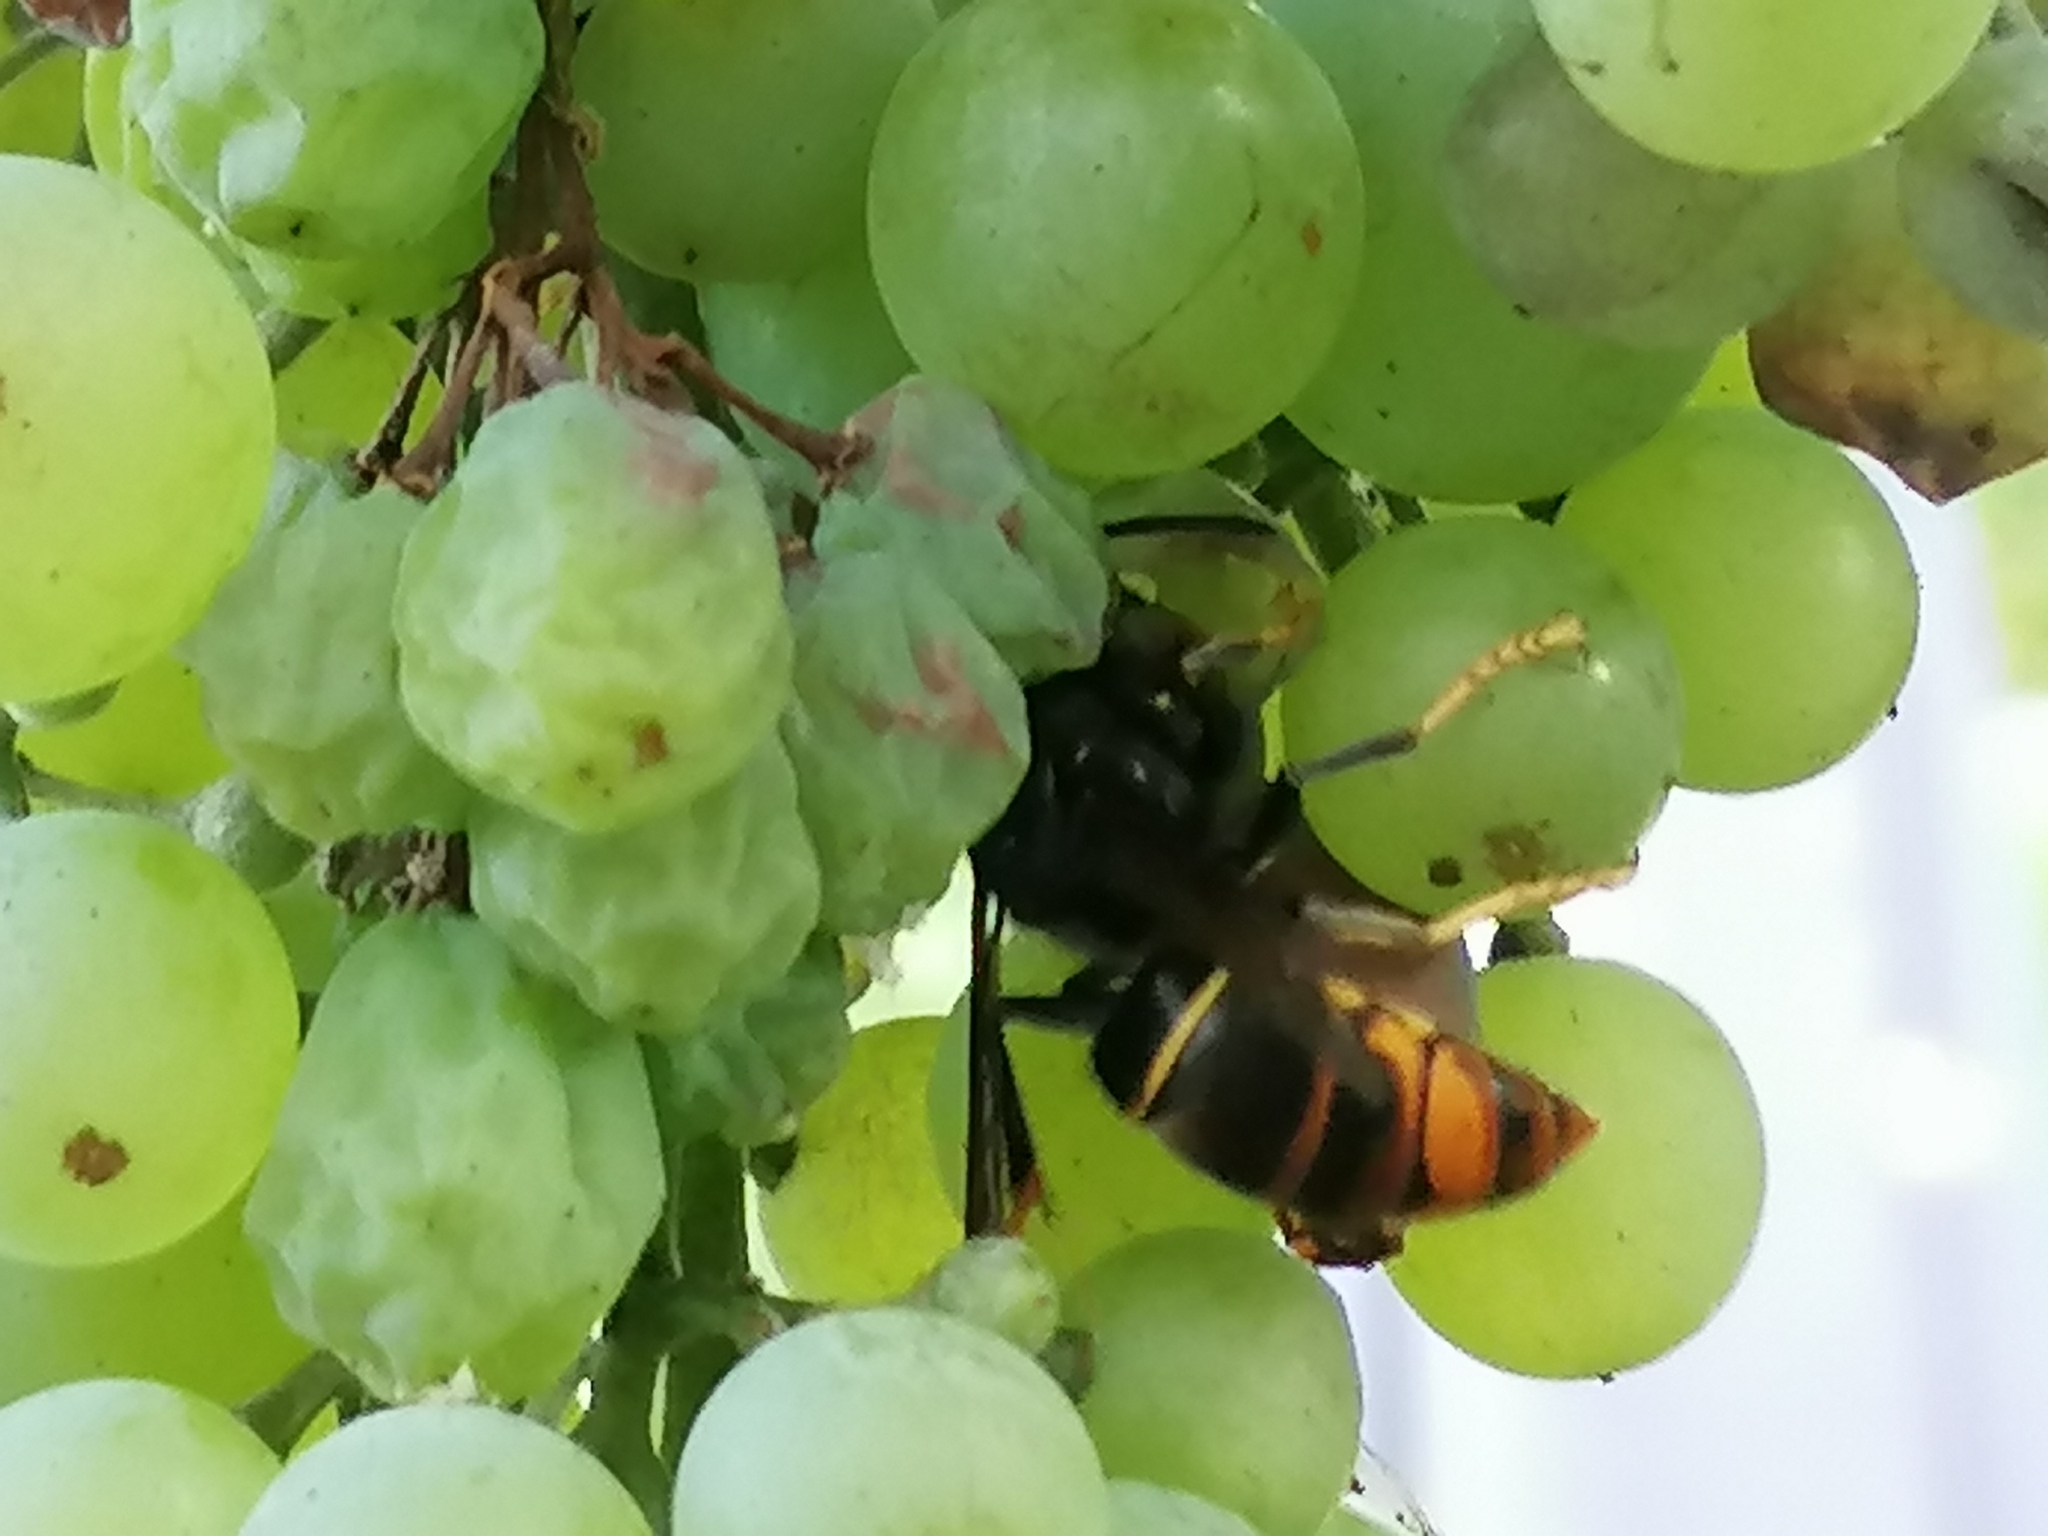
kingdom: Animalia
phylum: Arthropoda
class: Insecta
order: Hymenoptera
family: Vespidae
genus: Vespa
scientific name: Vespa velutina
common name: Asian hornet
